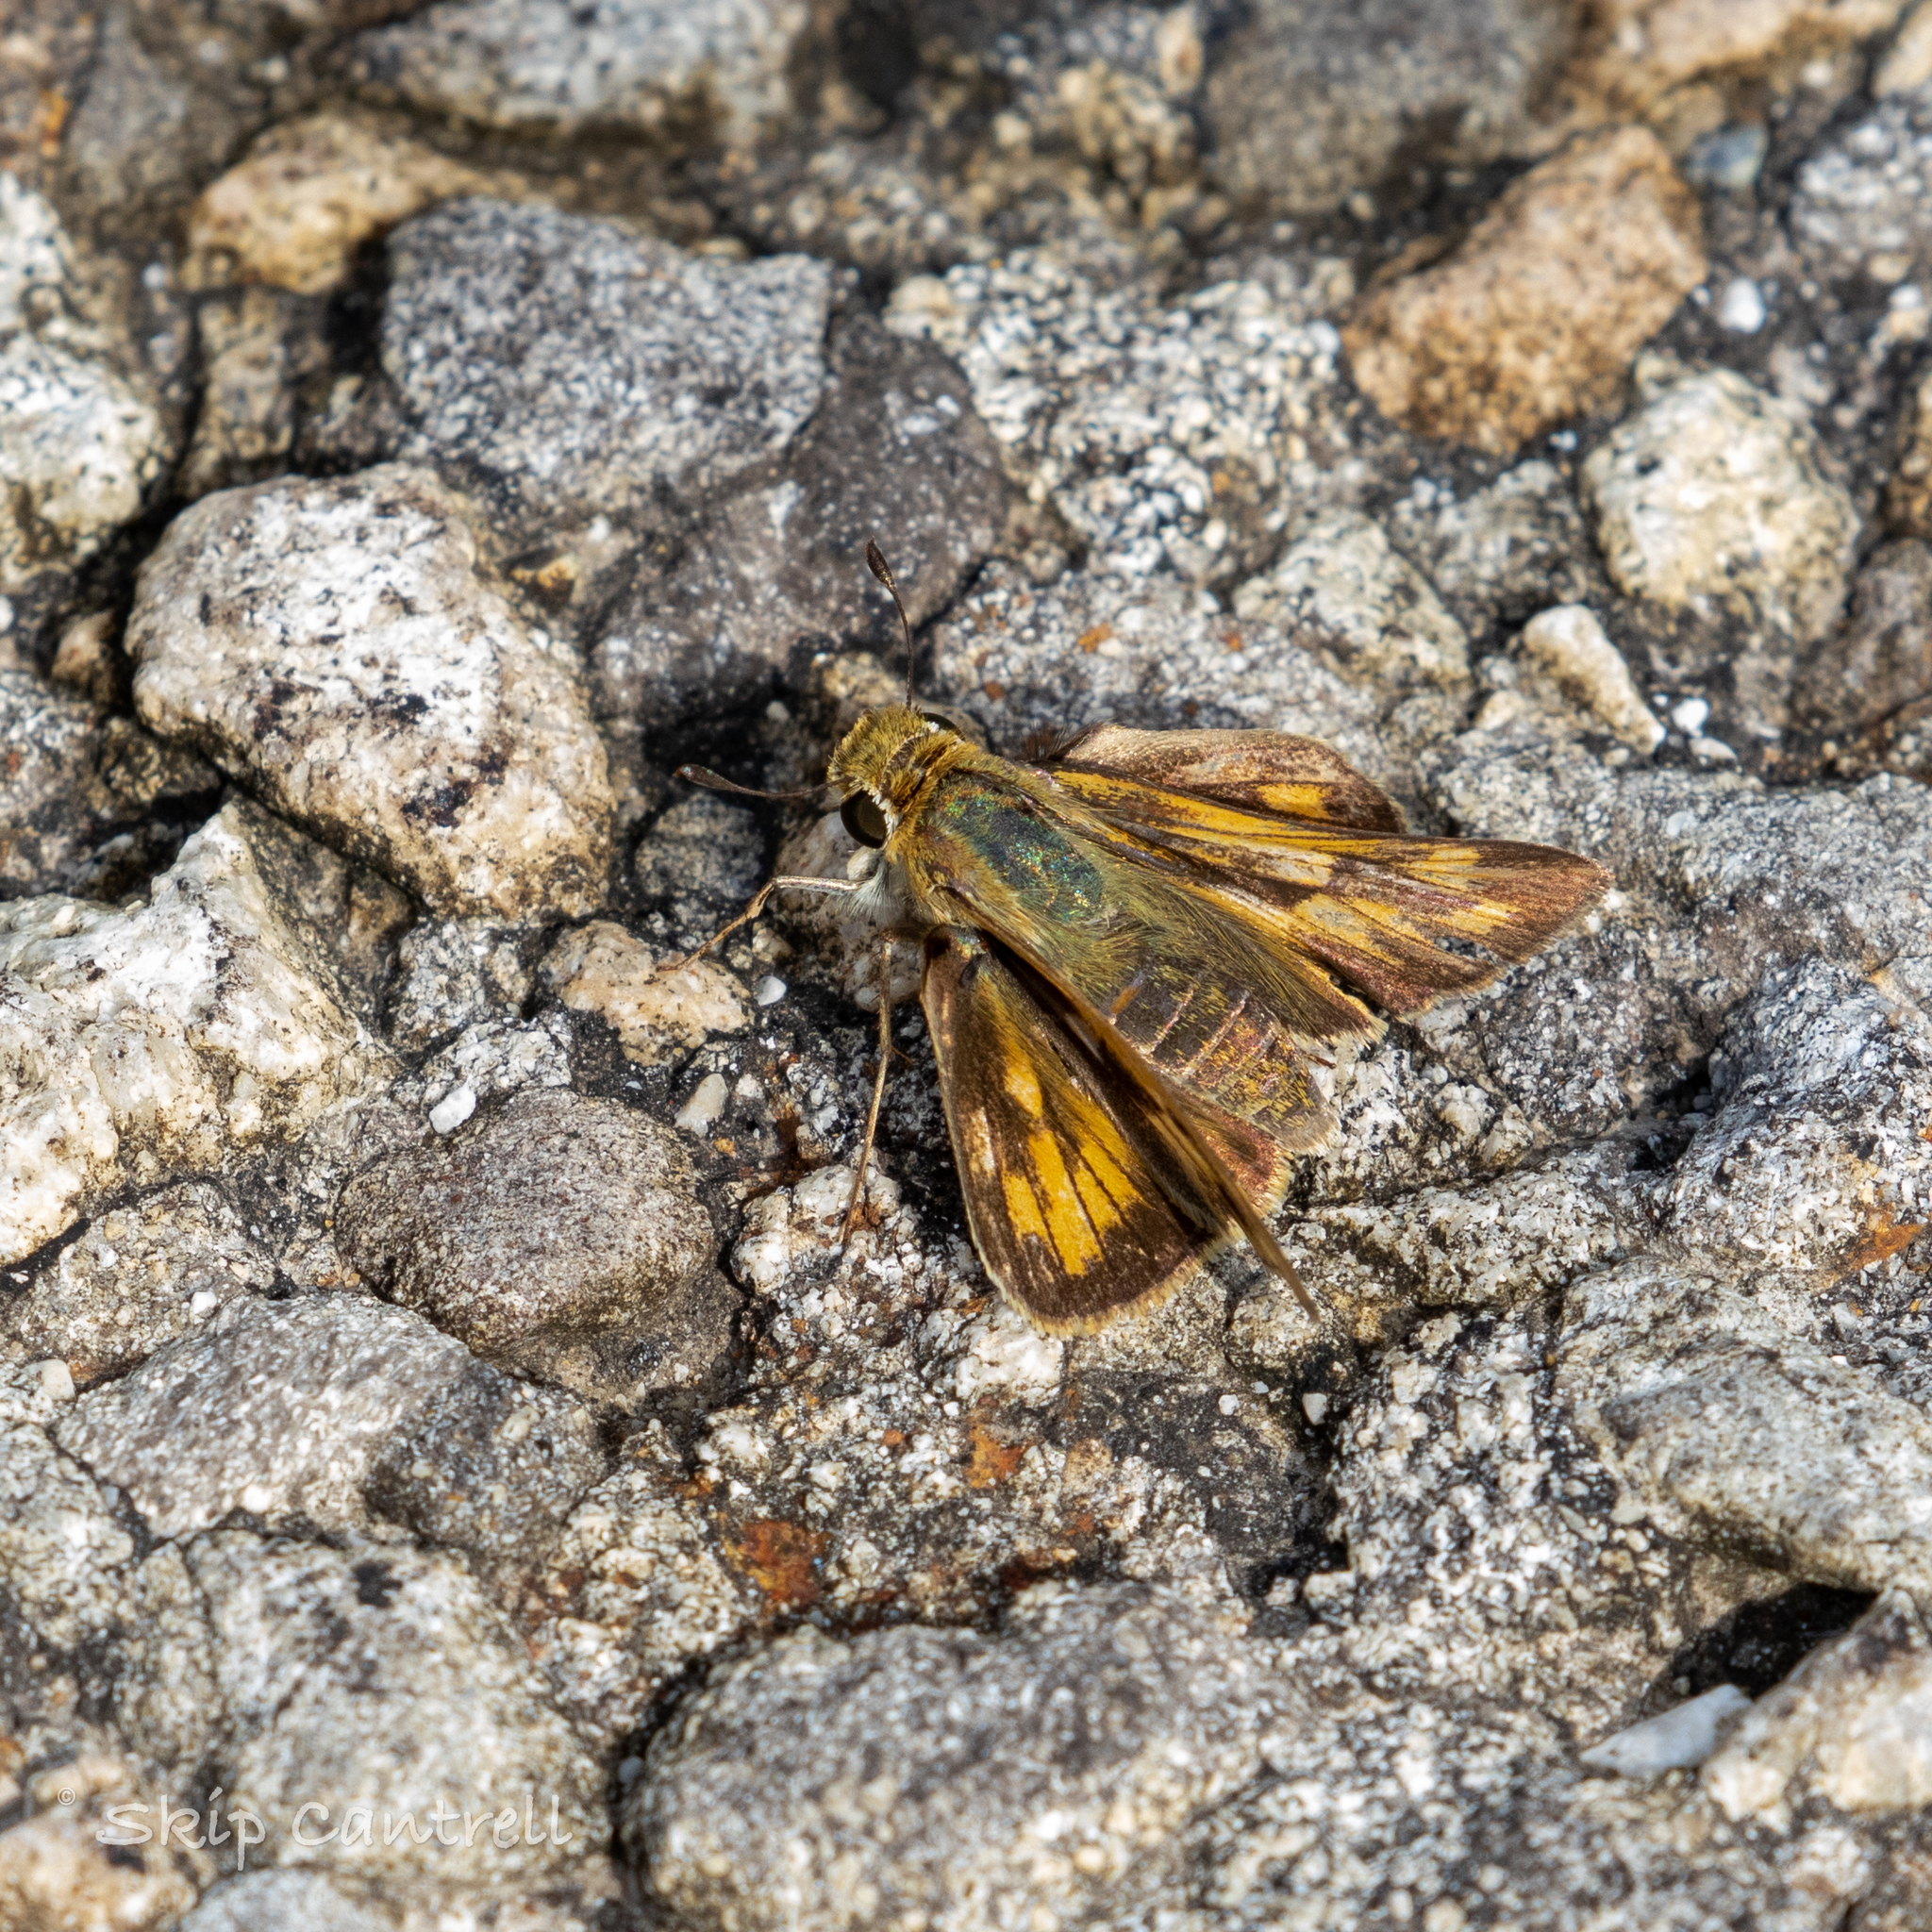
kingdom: Animalia
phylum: Arthropoda
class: Insecta
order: Lepidoptera
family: Hesperiidae
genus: Hylephila
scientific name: Hylephila phyleus
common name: Fiery skipper
